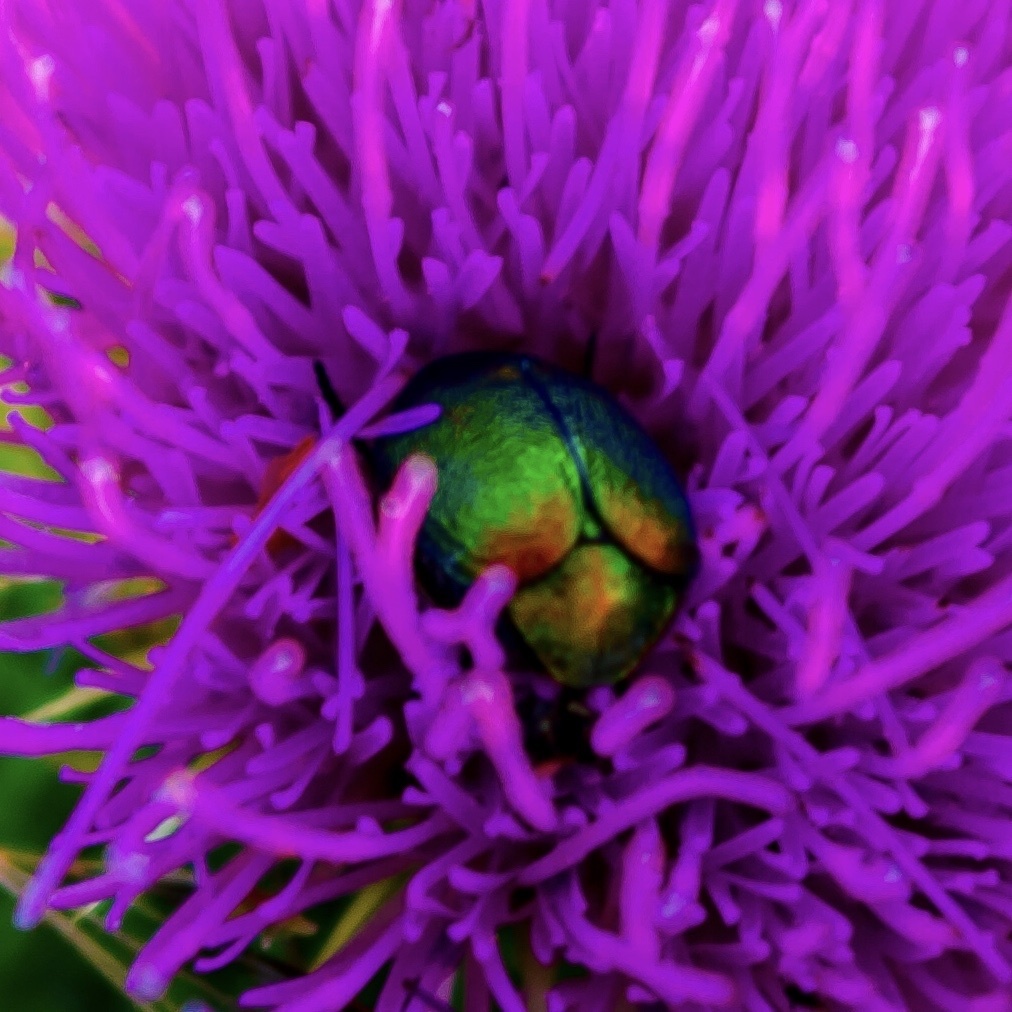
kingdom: Animalia
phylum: Arthropoda
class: Insecta
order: Coleoptera
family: Chrysomelidae
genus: Cryptocephalus
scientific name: Cryptocephalus
